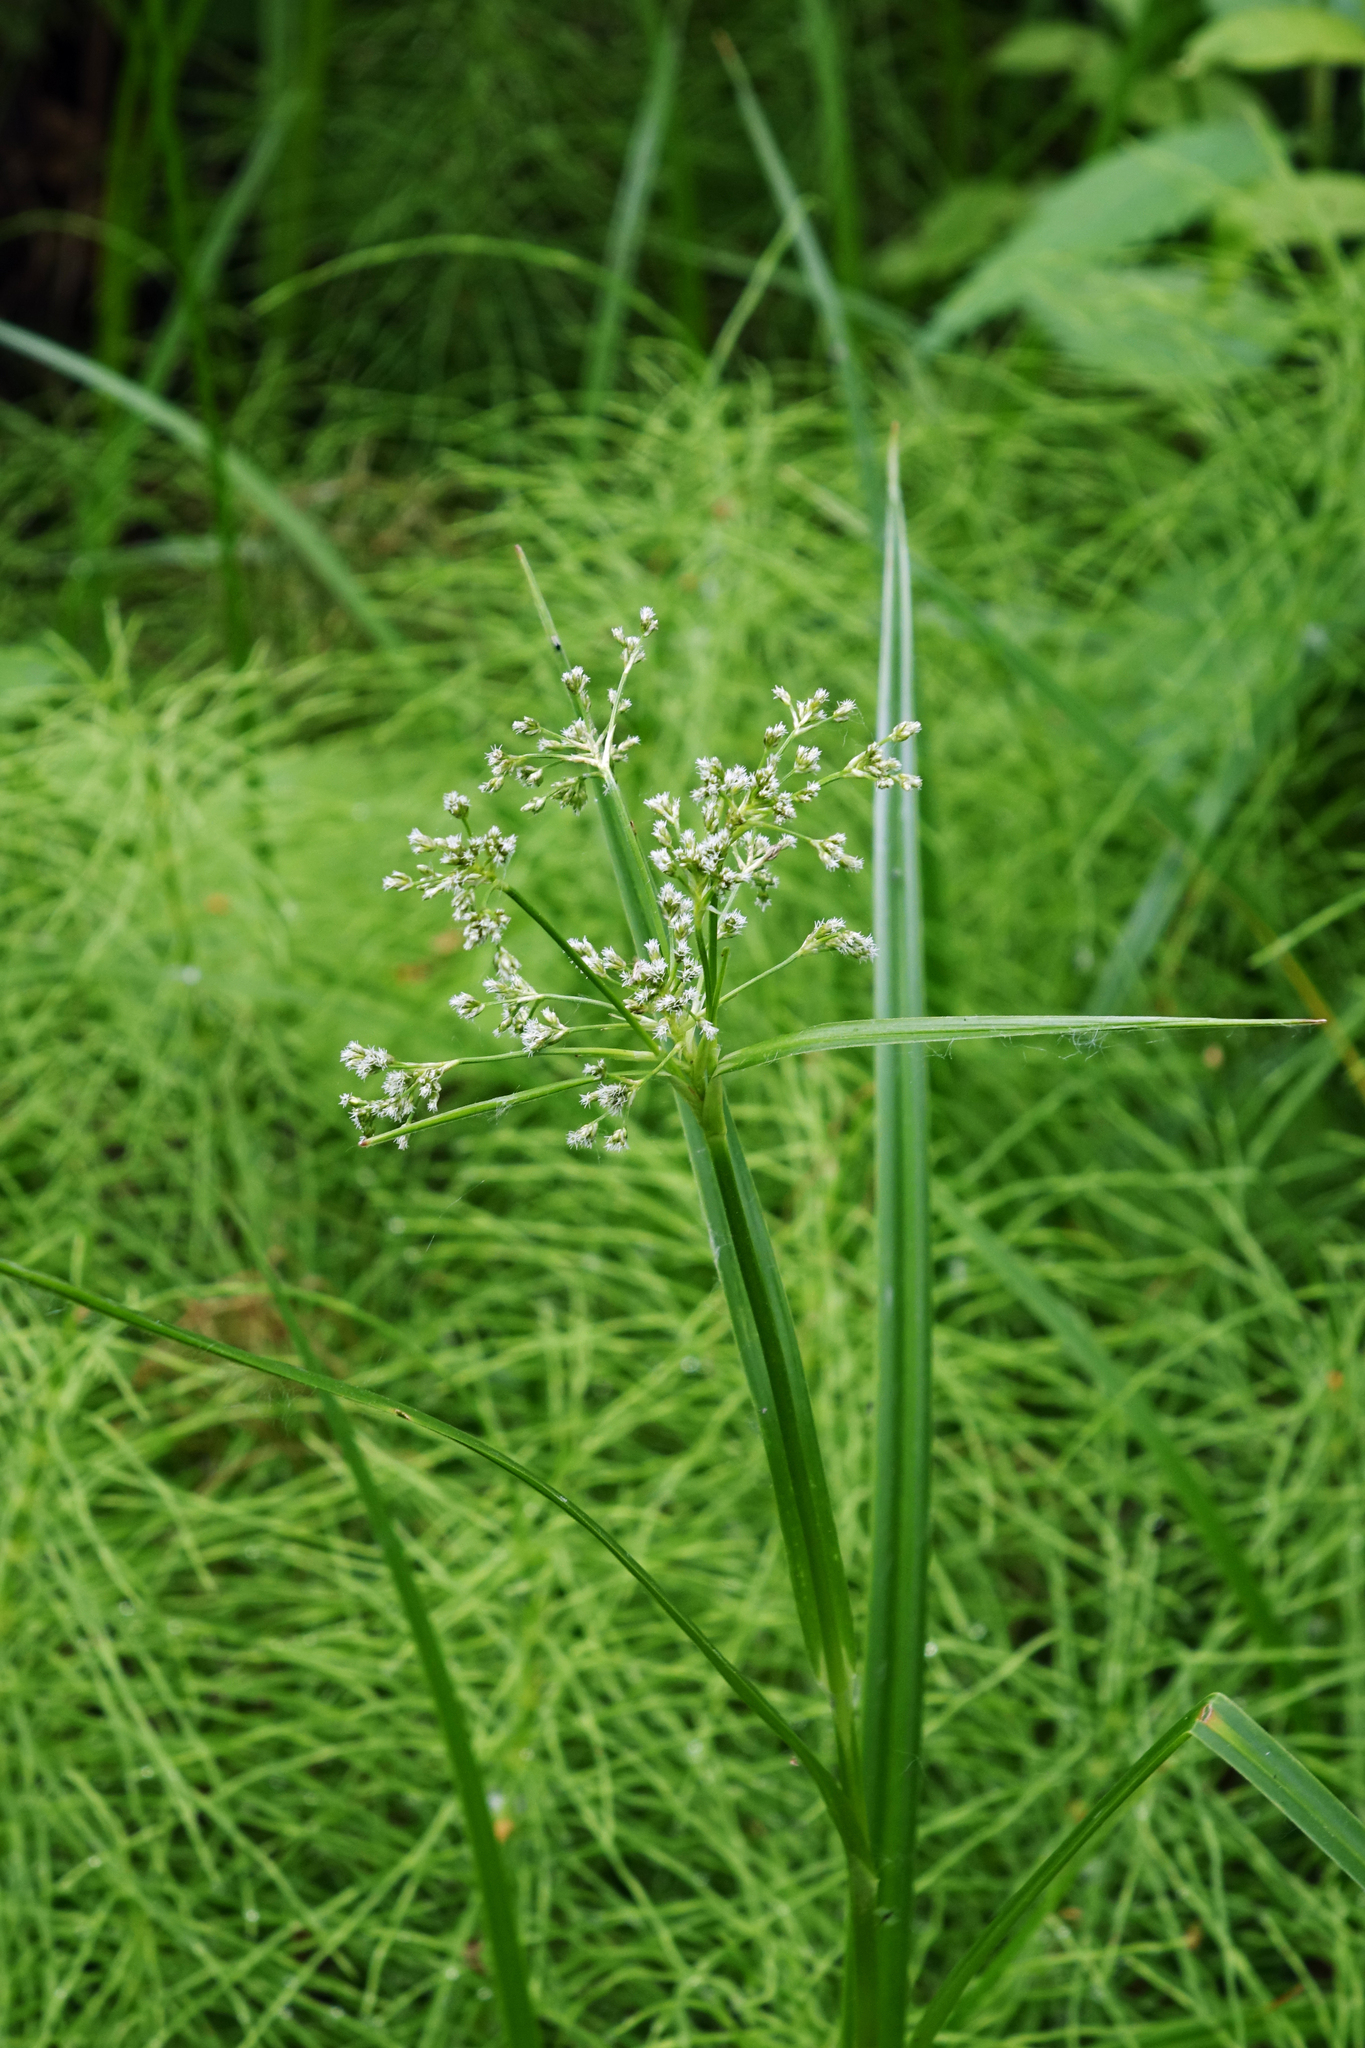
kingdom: Plantae
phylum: Tracheophyta
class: Liliopsida
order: Poales
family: Cyperaceae
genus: Scirpus
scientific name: Scirpus sylvaticus
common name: Wood club-rush
